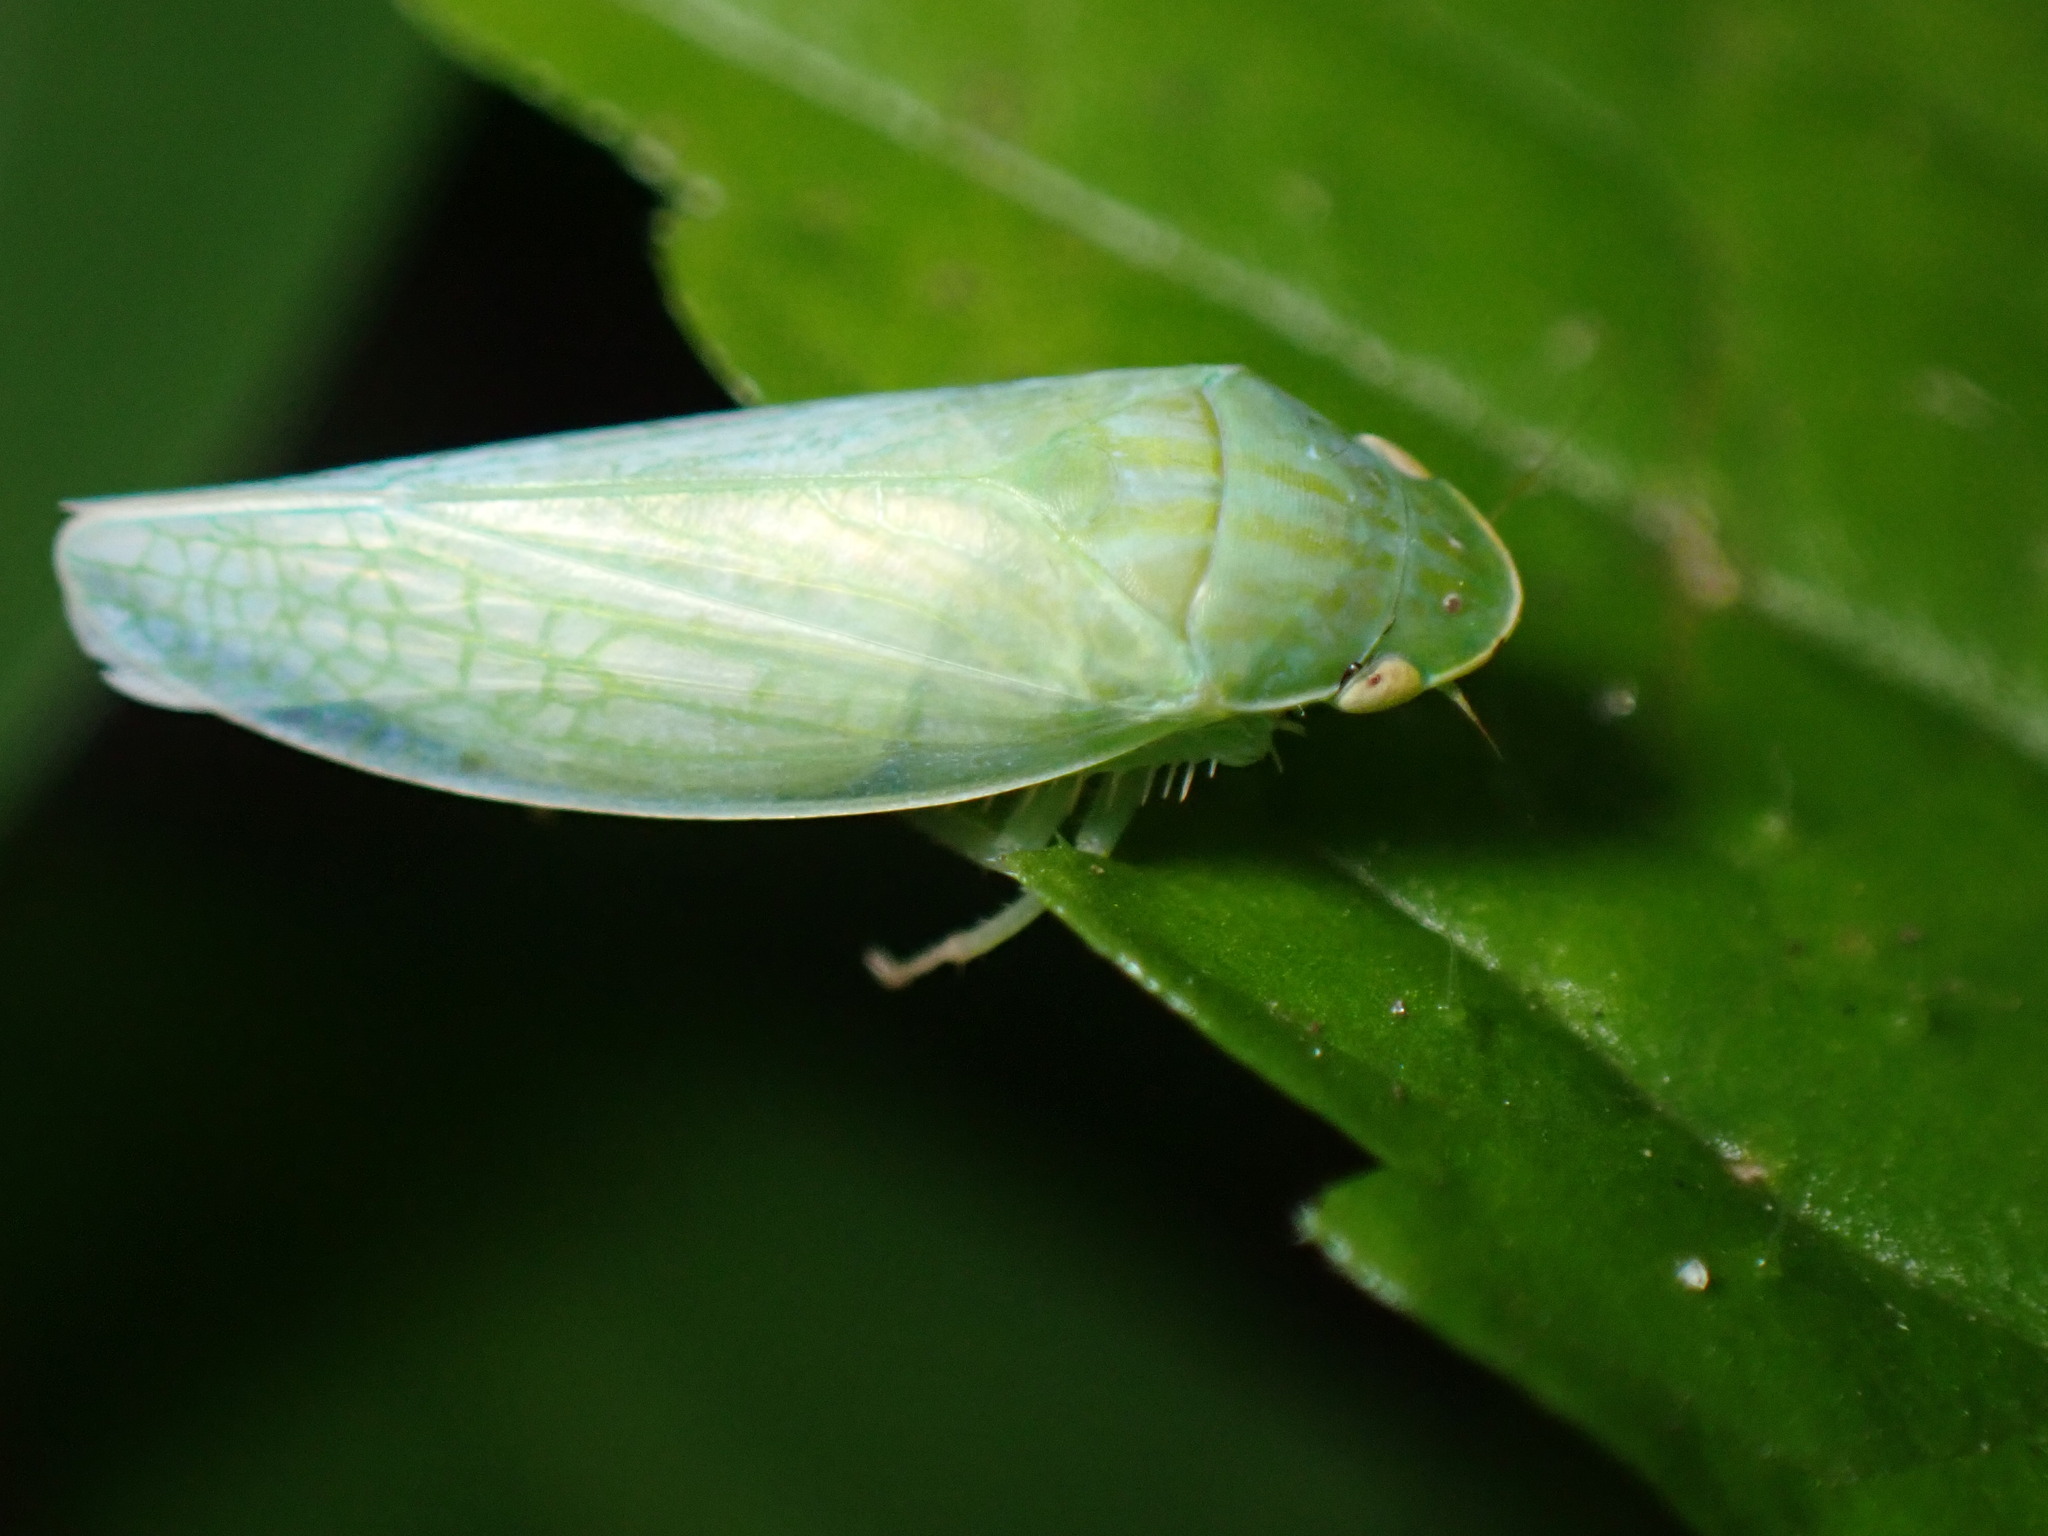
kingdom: Animalia
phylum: Arthropoda
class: Insecta
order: Hemiptera
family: Cicadellidae
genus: Gyponana
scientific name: Gyponana octolineata
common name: Eight-lined leafhopper
